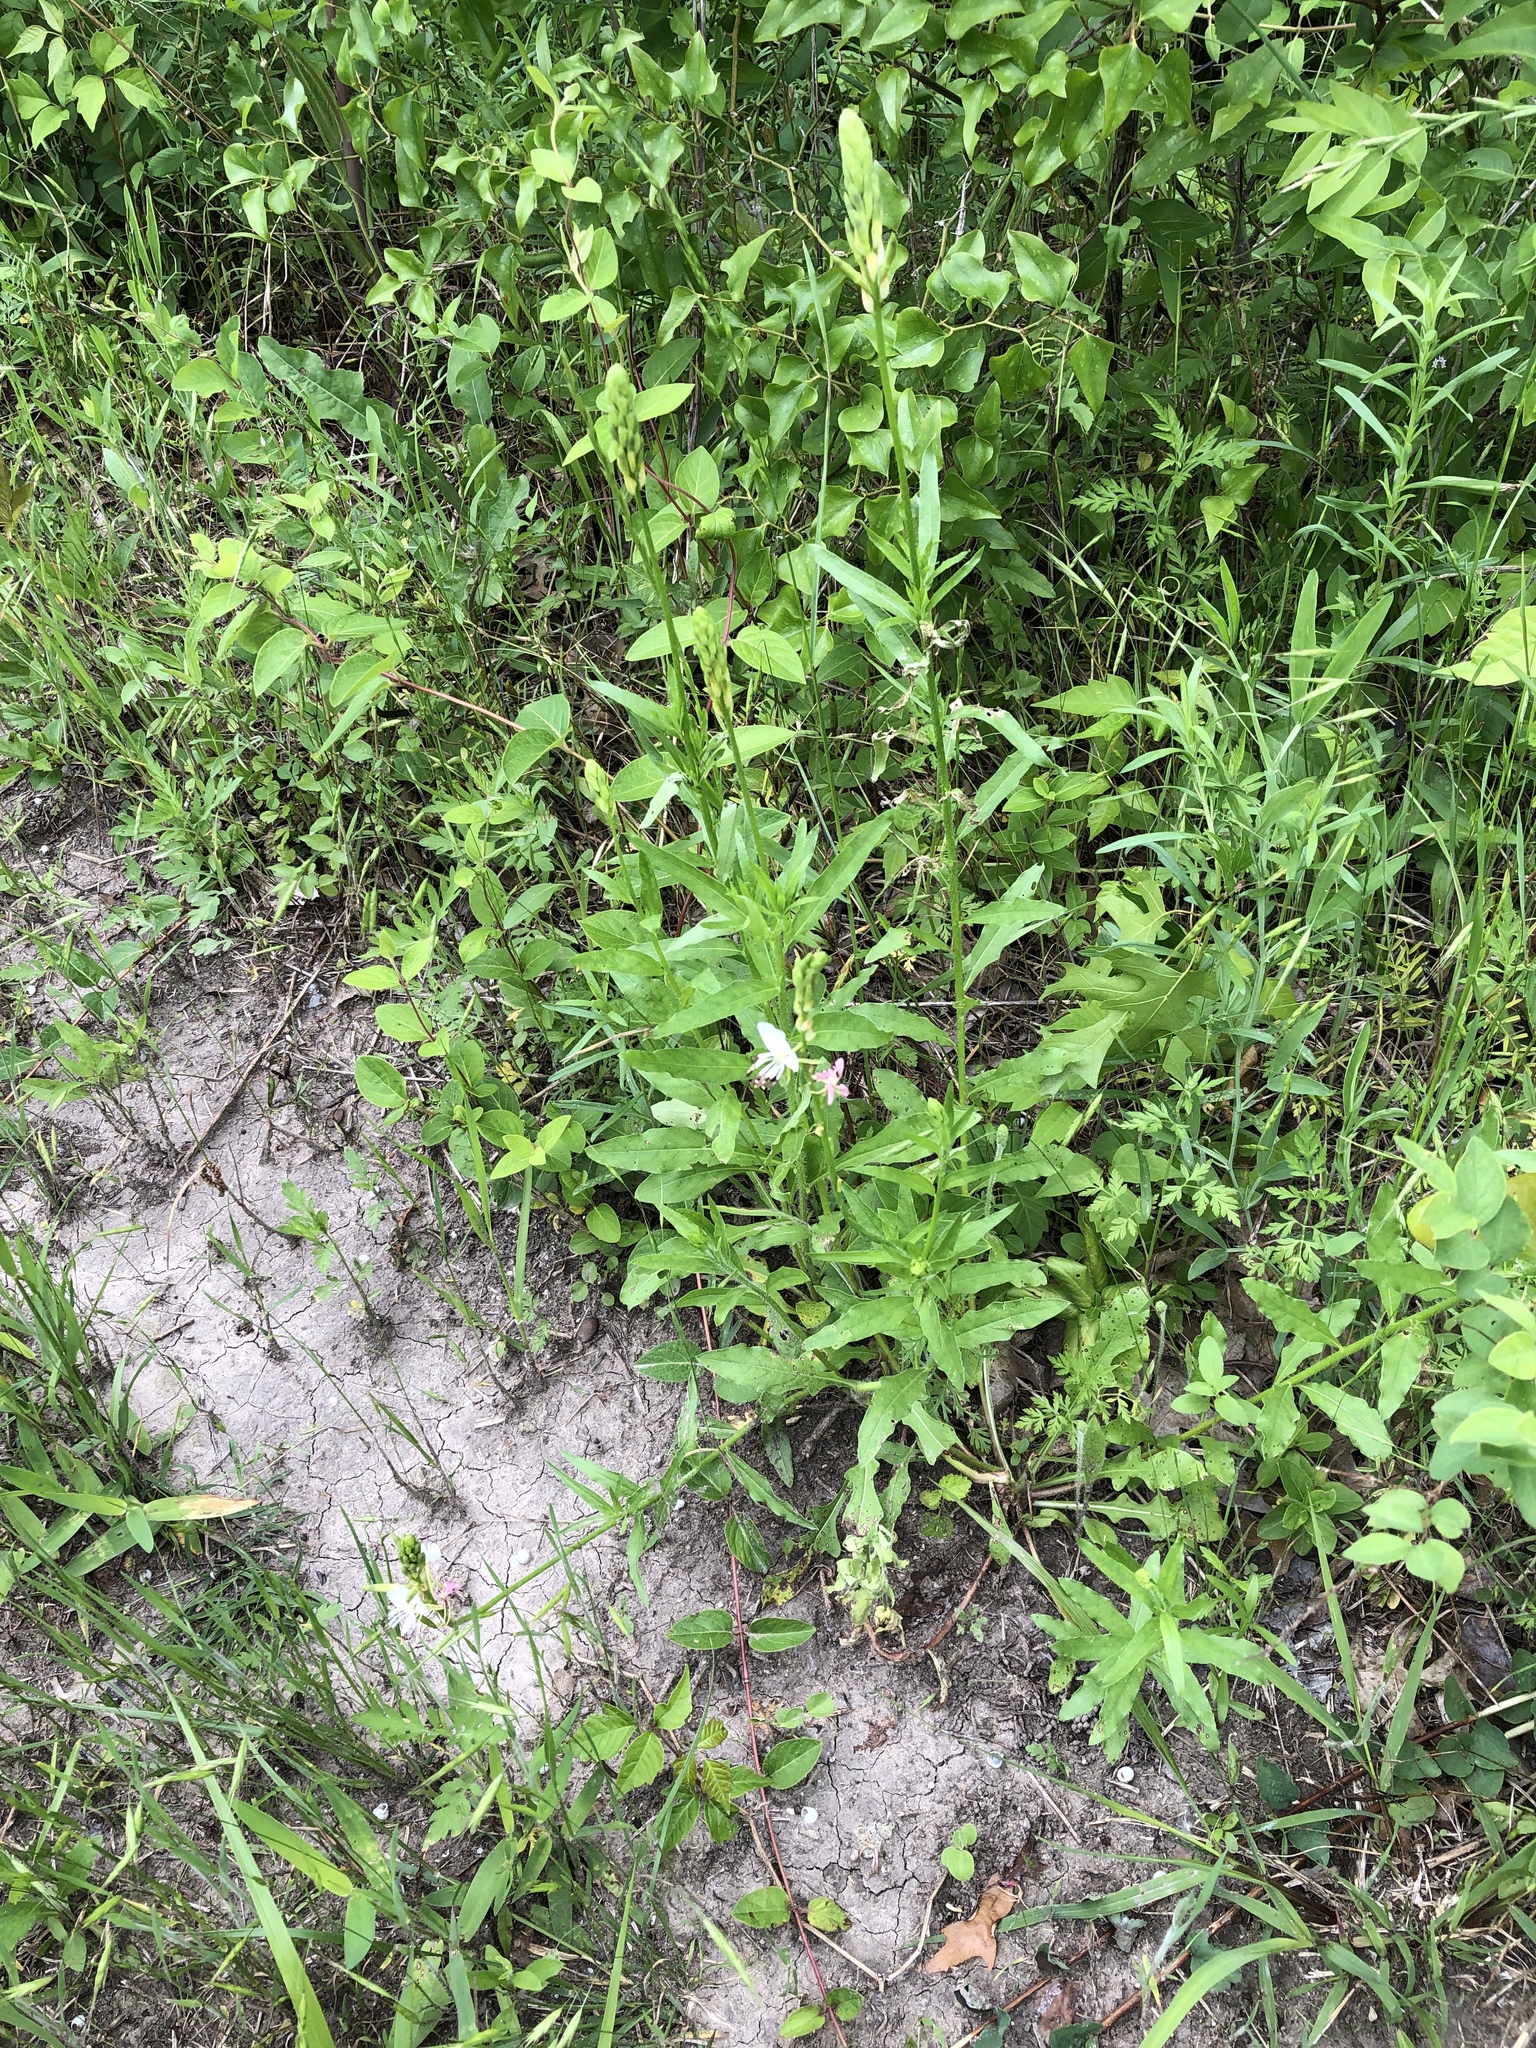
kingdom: Plantae
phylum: Tracheophyta
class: Magnoliopsida
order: Myrtales
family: Onagraceae
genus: Oenothera
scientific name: Oenothera suffulta
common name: Kisses
